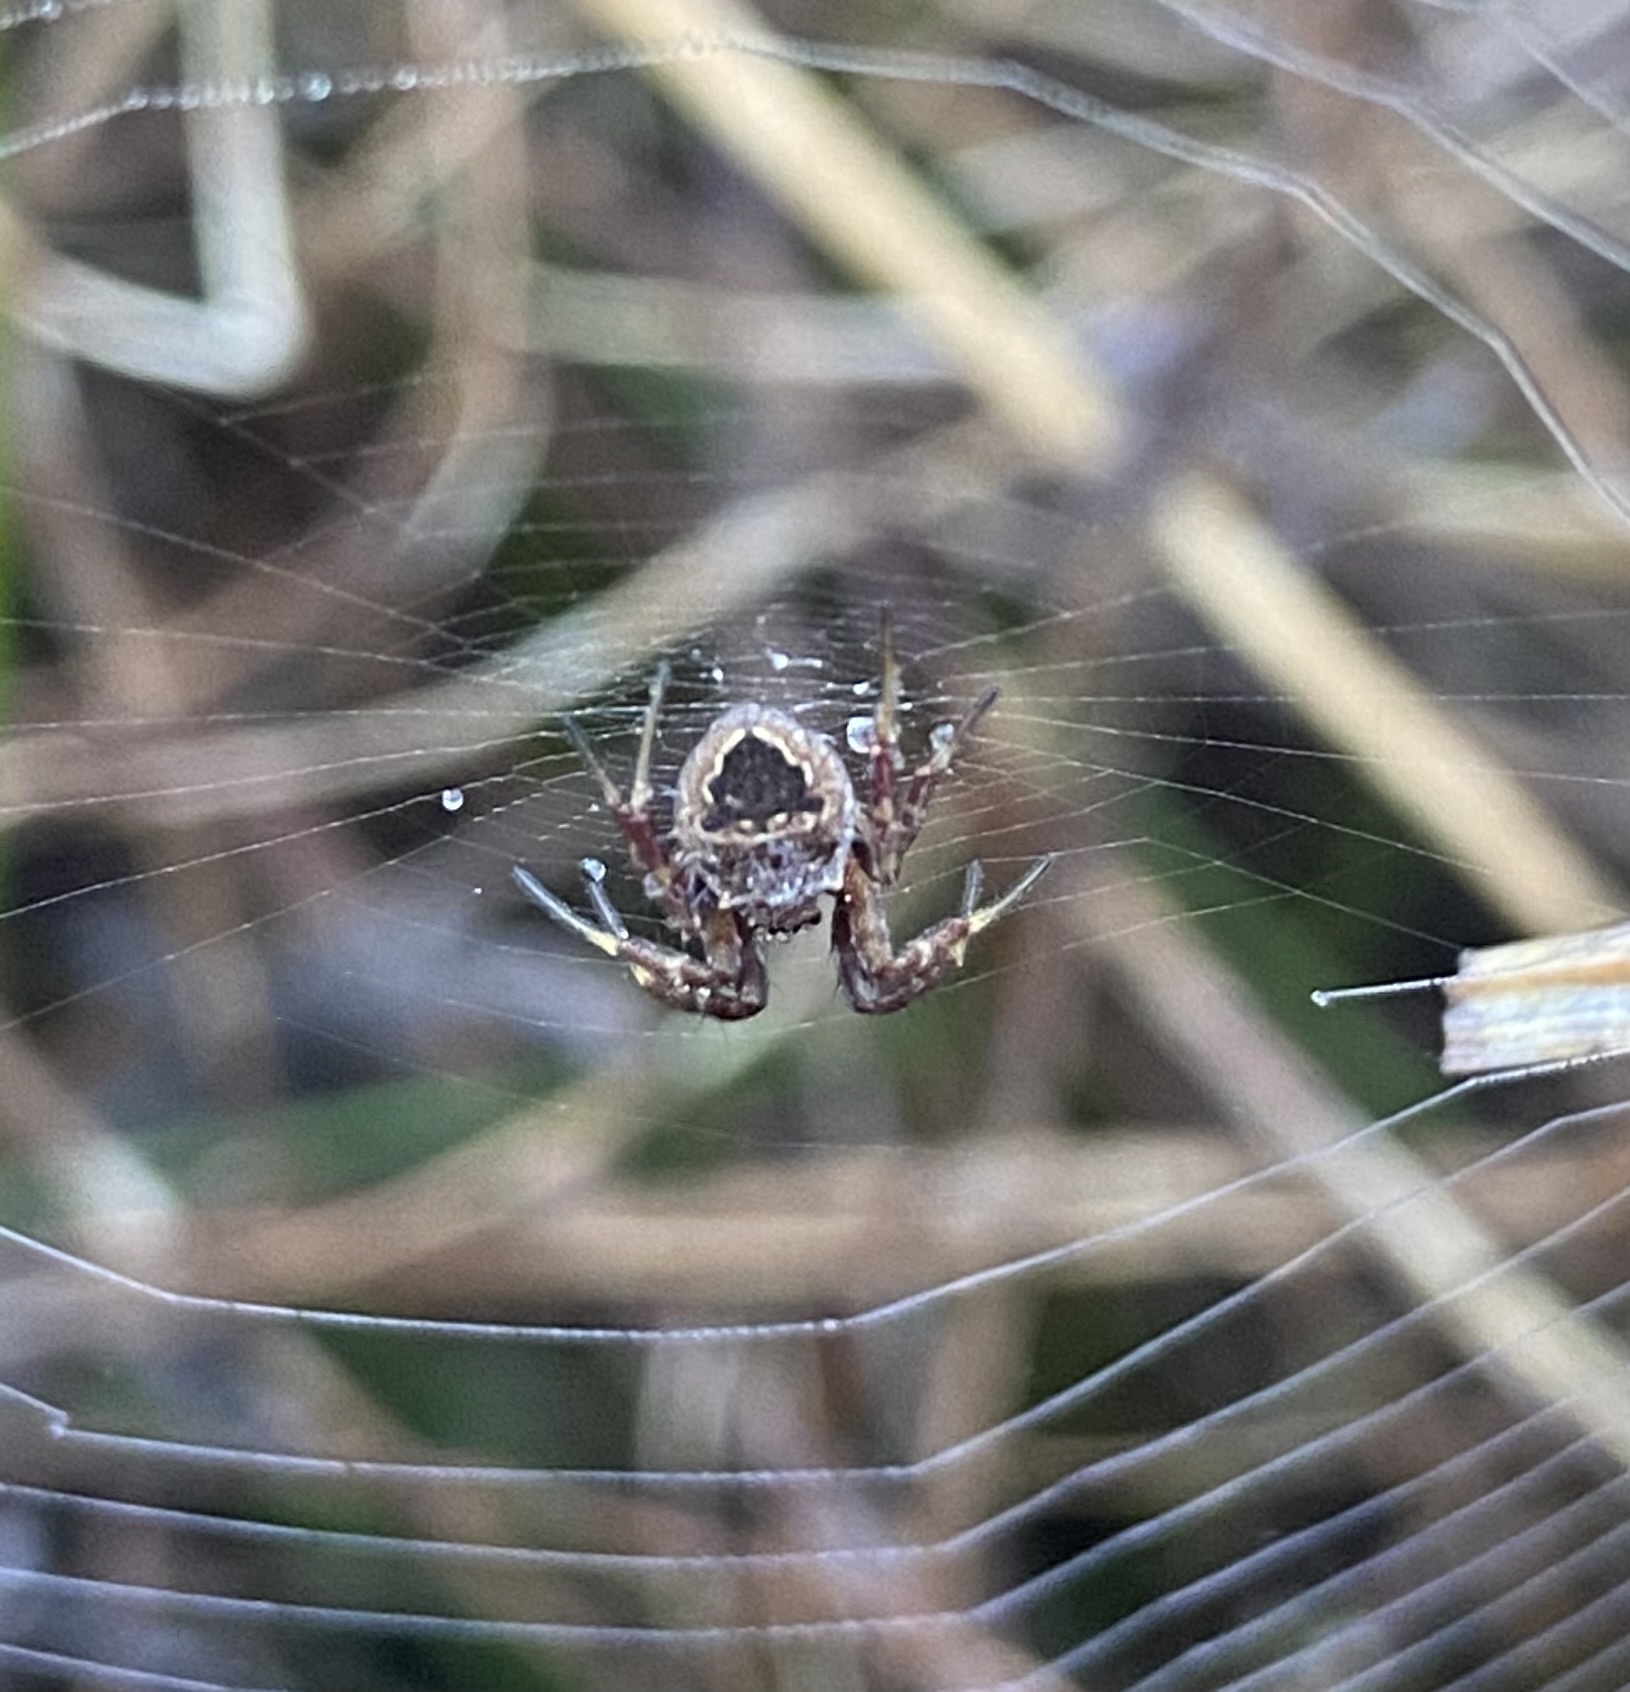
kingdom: Animalia
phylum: Arthropoda
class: Arachnida
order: Araneae
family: Araneidae
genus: Gea
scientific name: Gea infuscata
